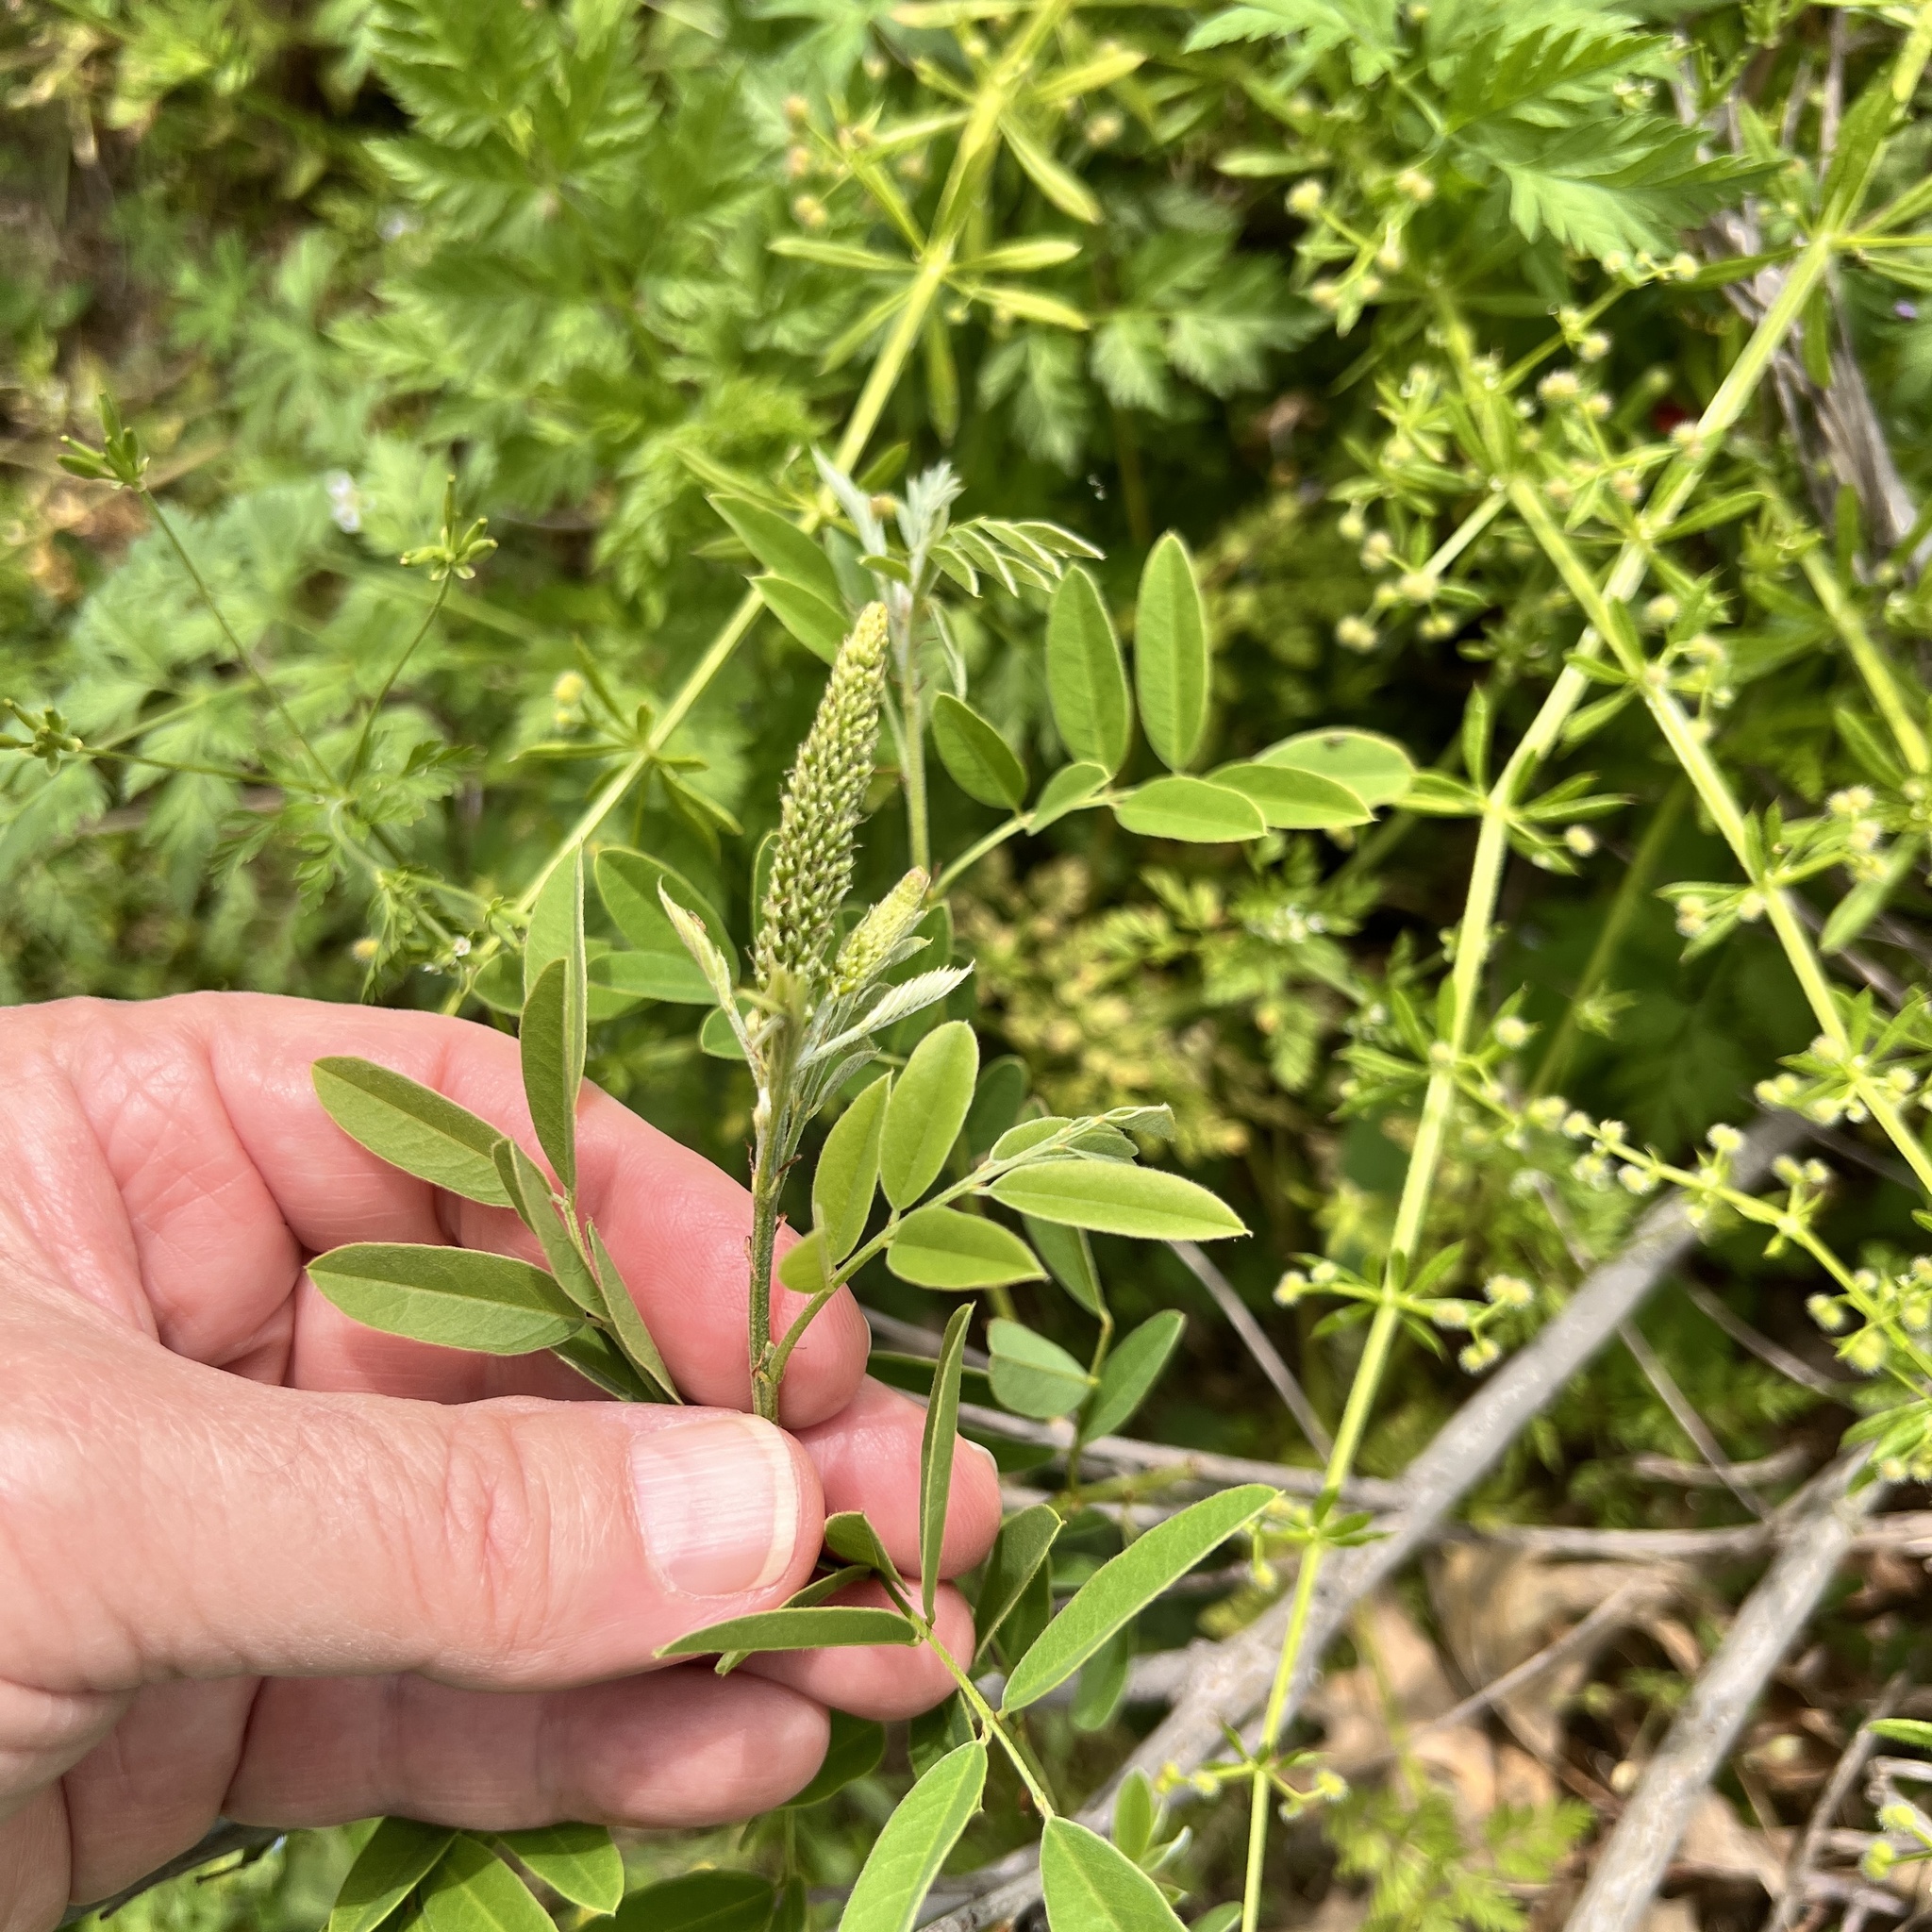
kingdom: Plantae
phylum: Tracheophyta
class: Magnoliopsida
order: Fabales
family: Fabaceae
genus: Amorpha
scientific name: Amorpha fruticosa
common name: False indigo
